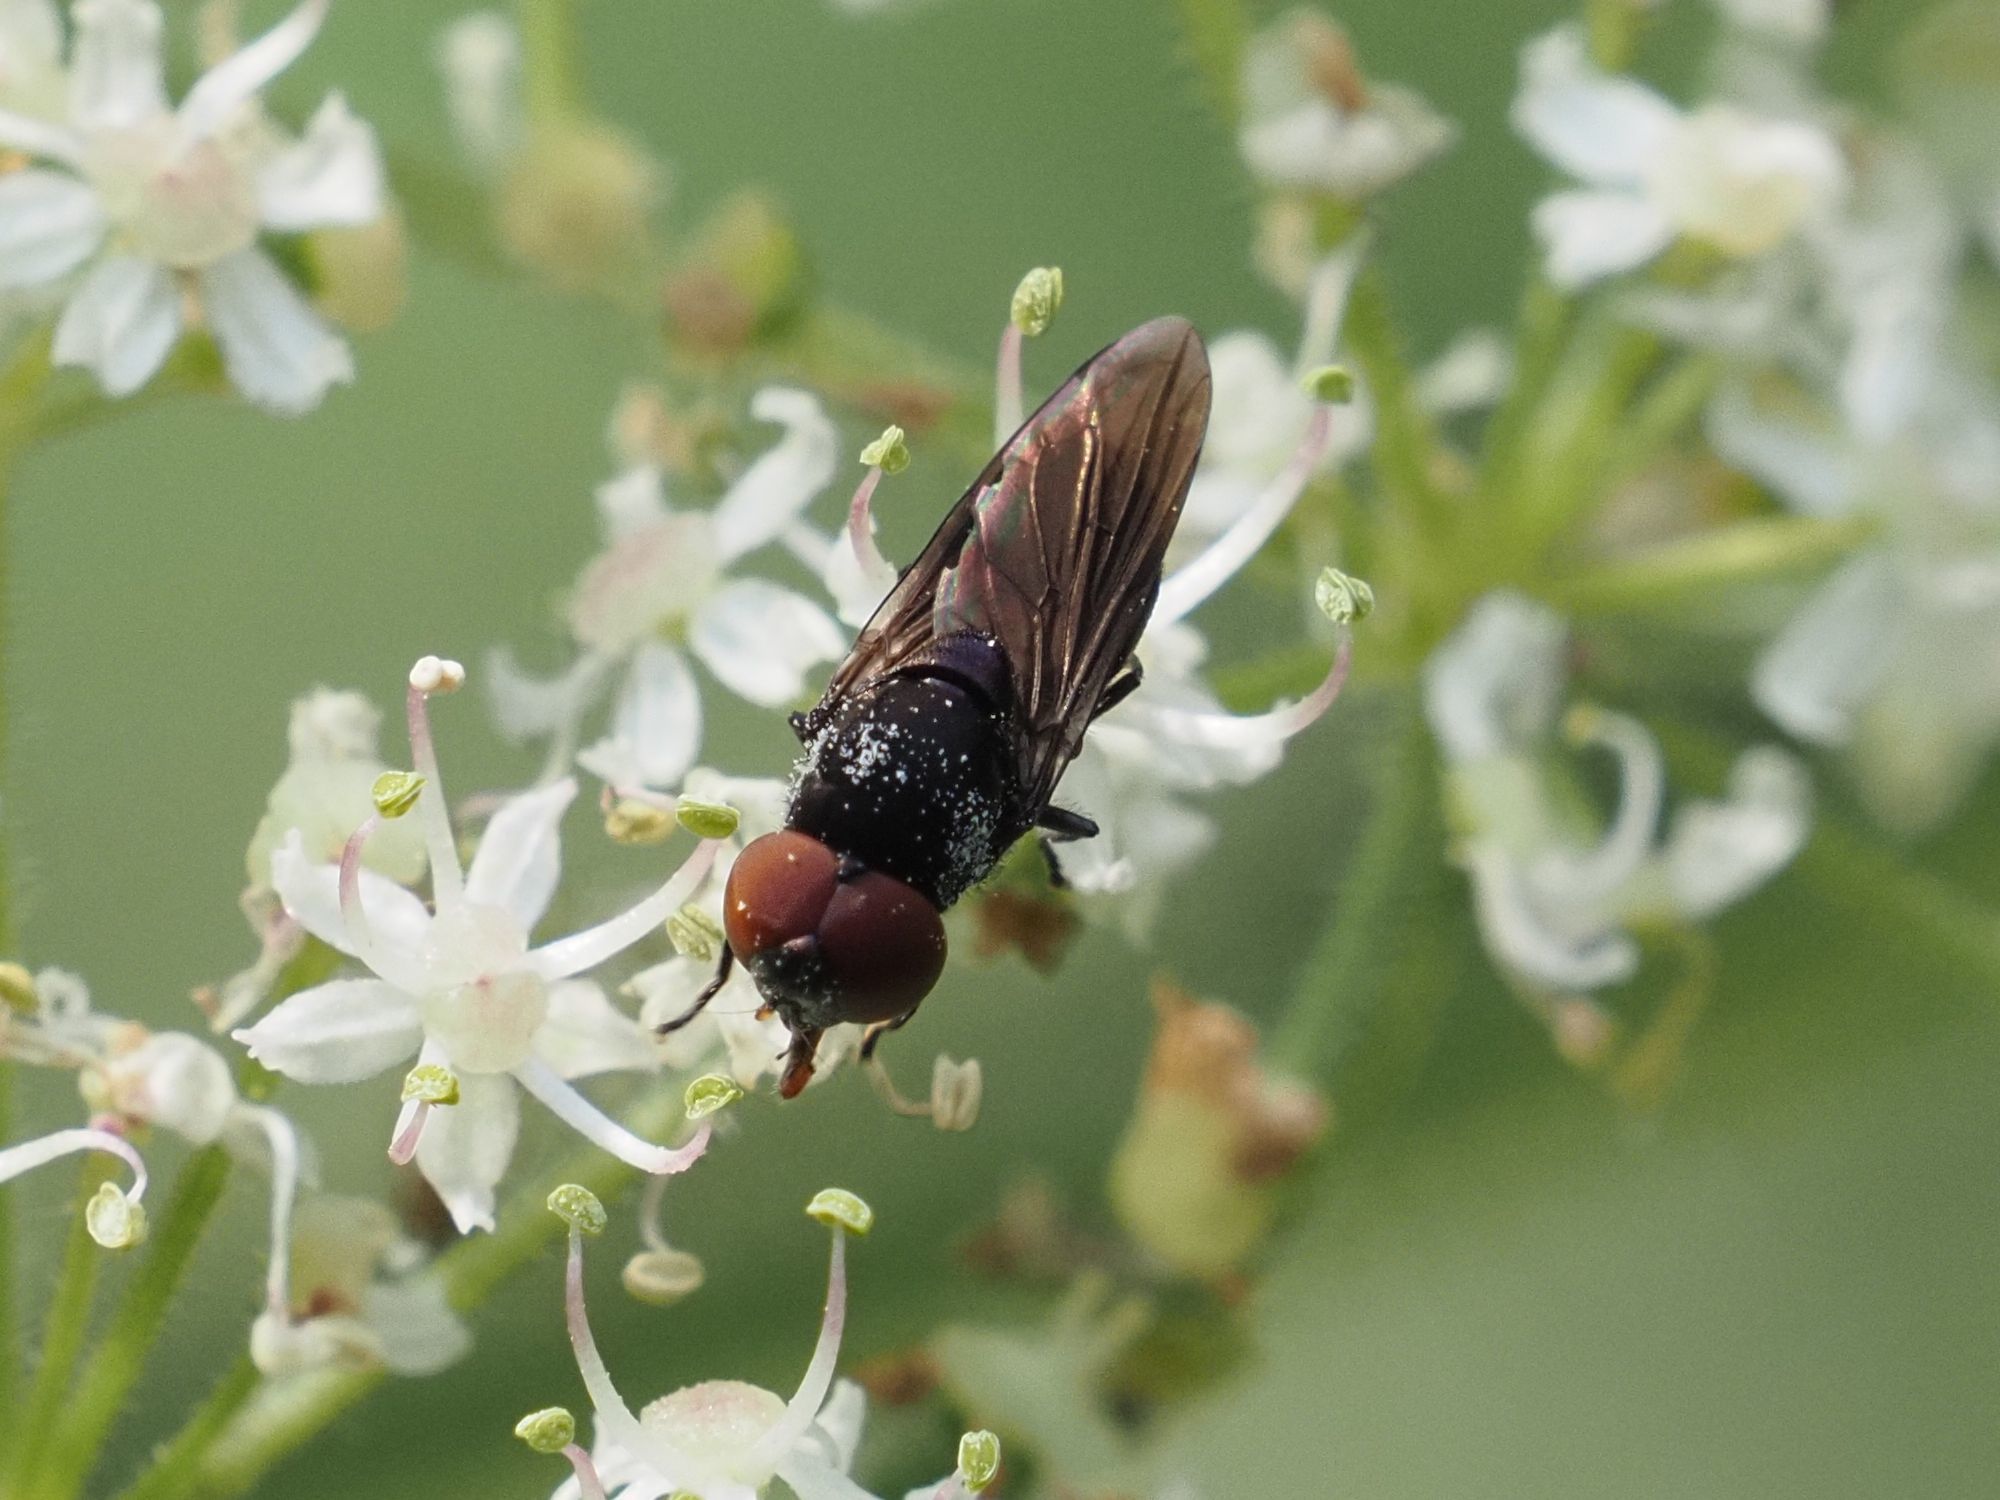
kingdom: Animalia
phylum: Arthropoda
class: Insecta
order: Diptera
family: Syrphidae
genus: Chrysogaster
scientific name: Chrysogaster solstitialis
